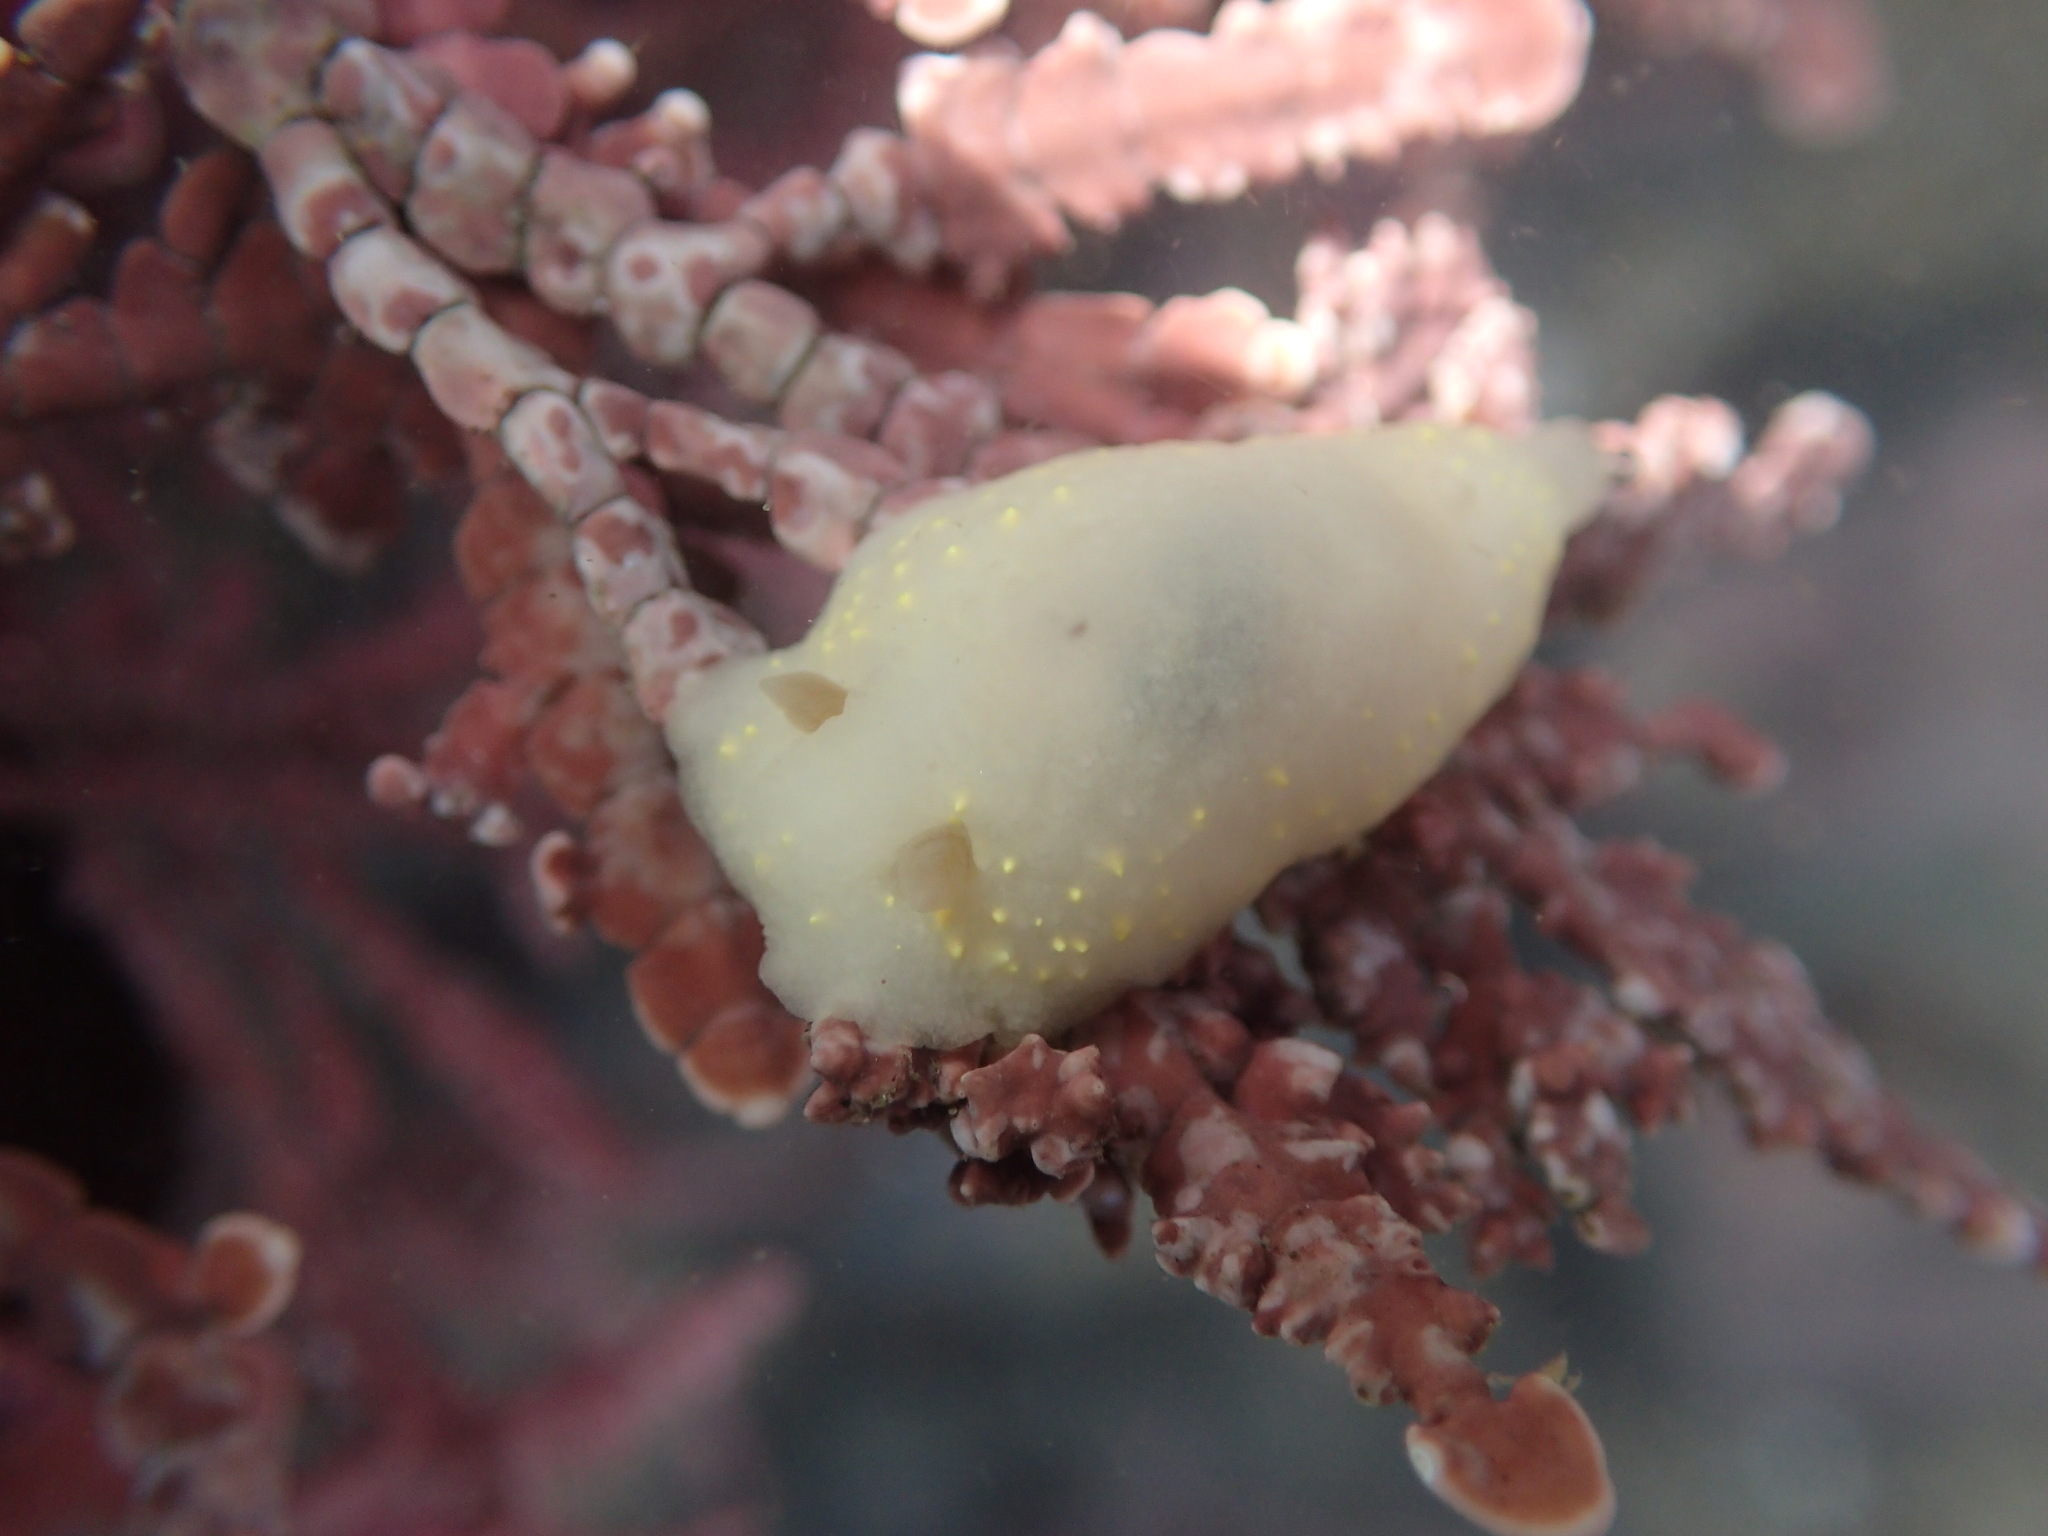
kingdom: Animalia
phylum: Mollusca
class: Gastropoda
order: Nudibranchia
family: Cadlinidae
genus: Cadlina
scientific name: Cadlina modesta
